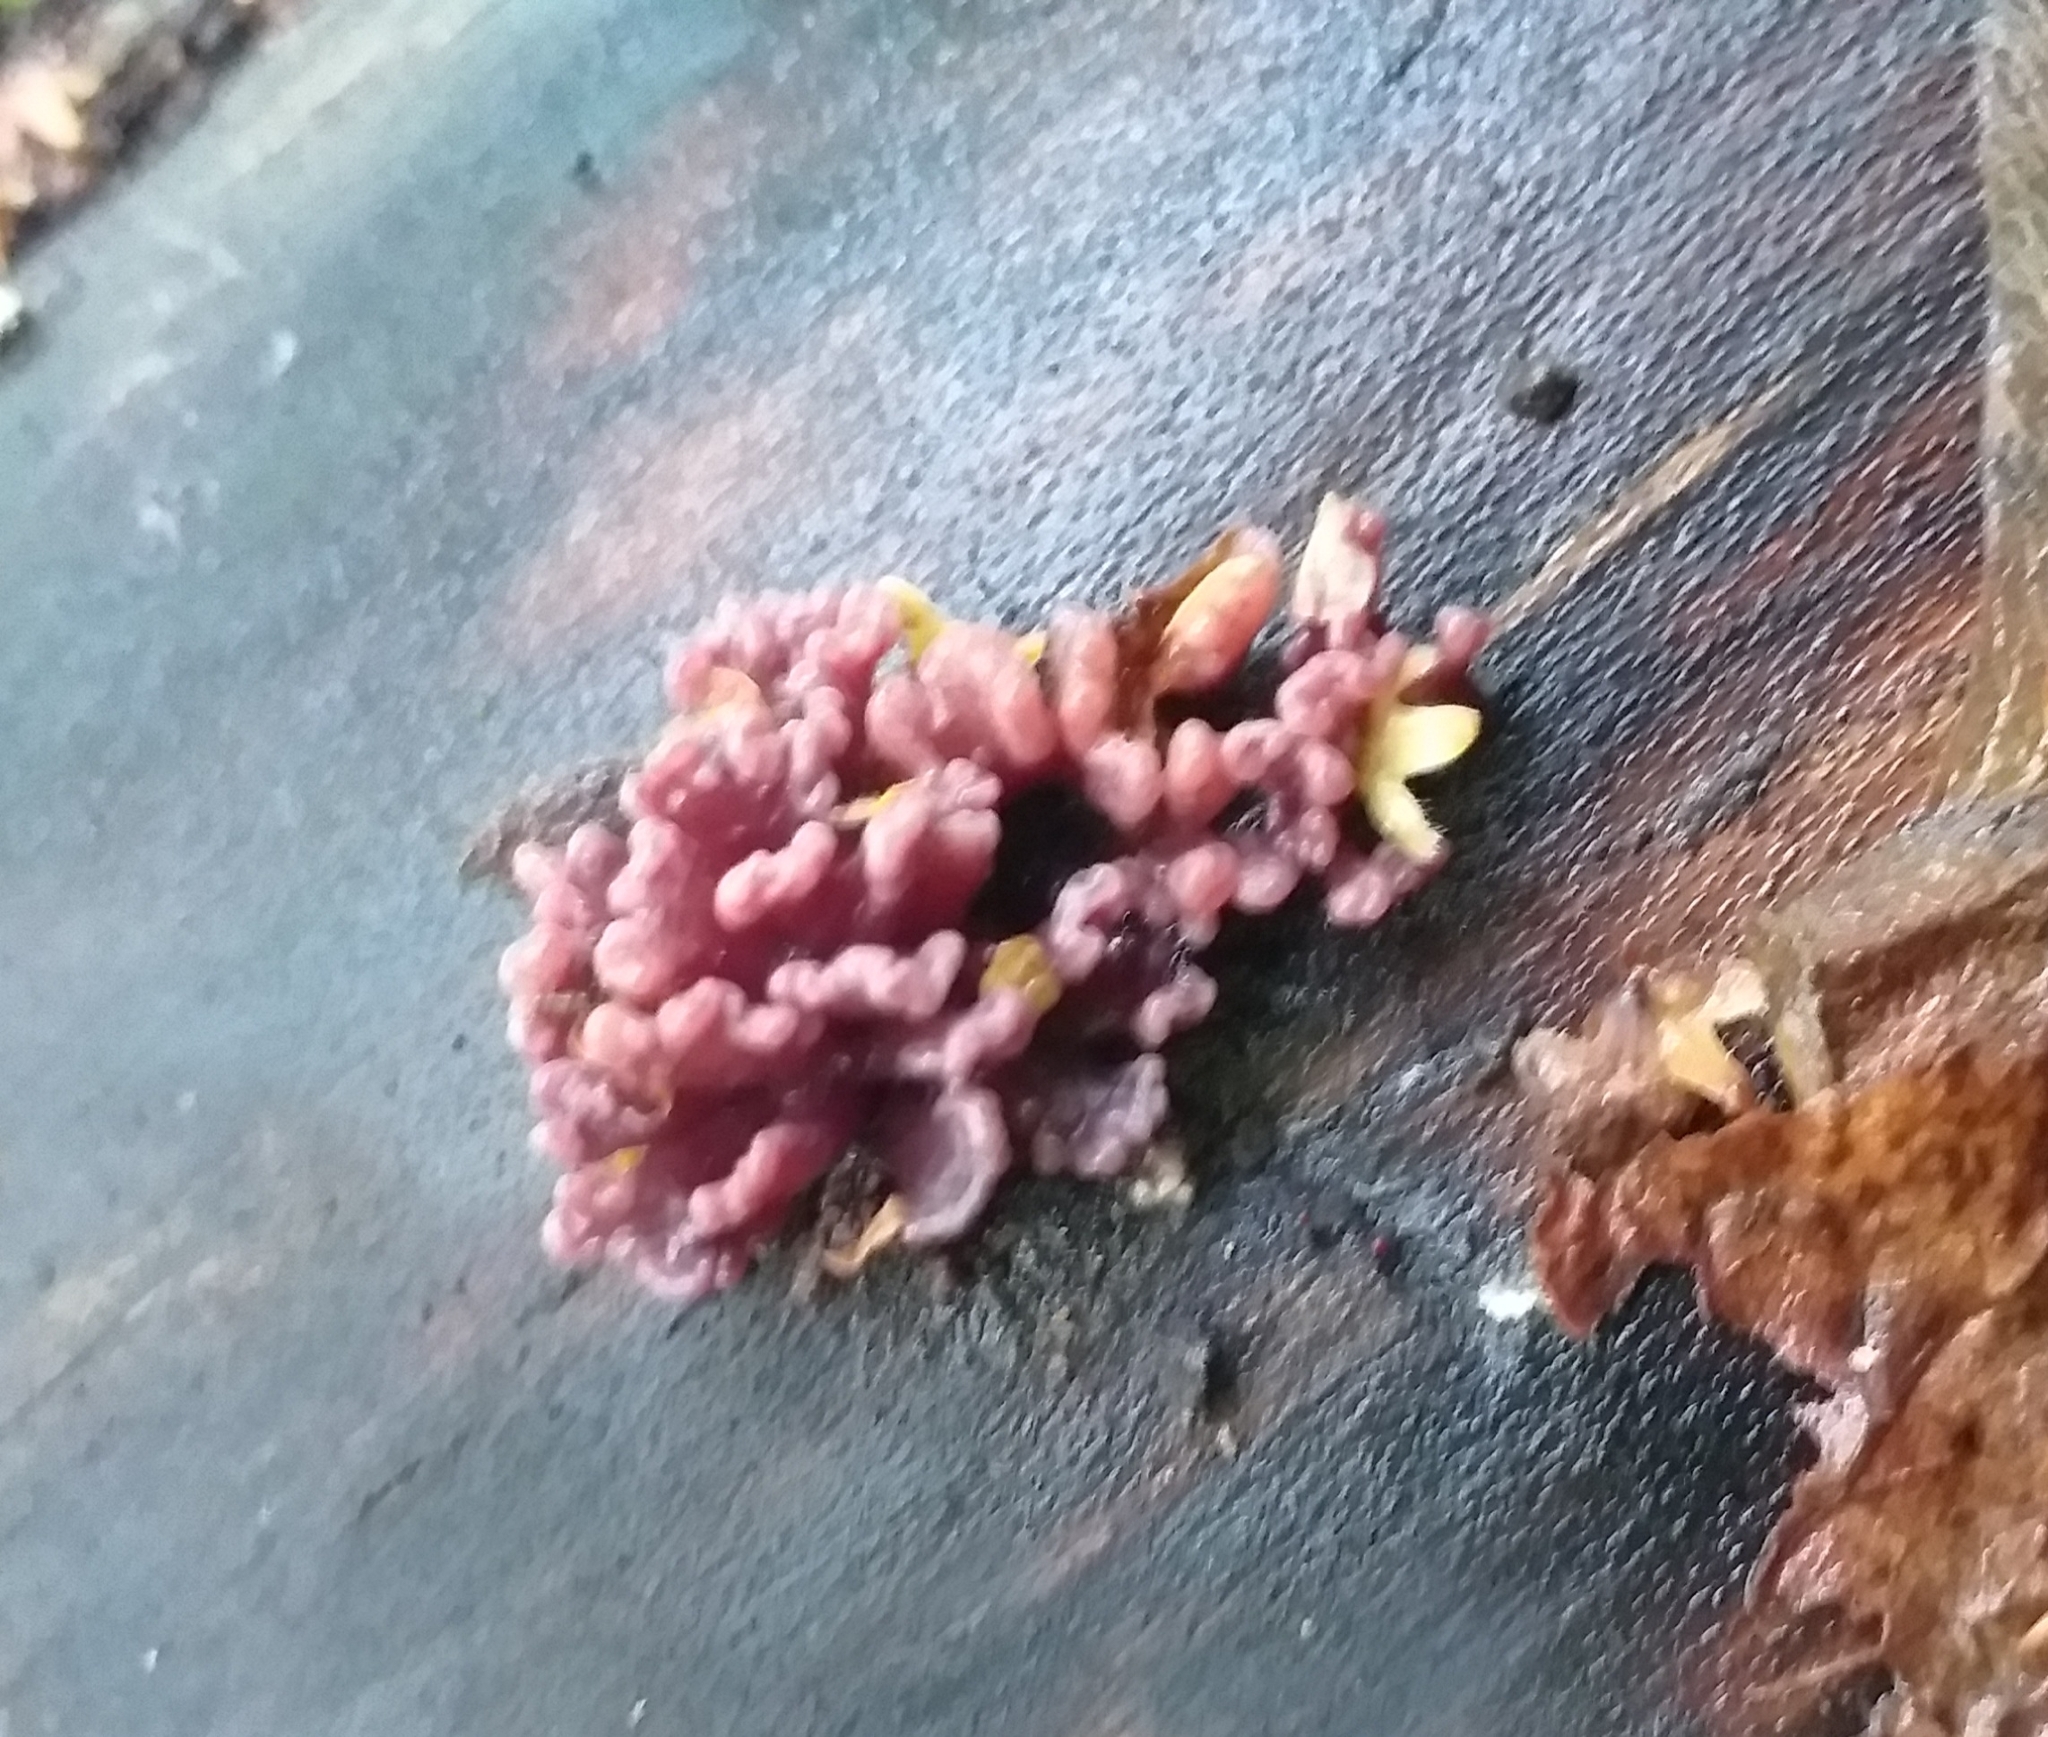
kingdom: Fungi
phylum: Ascomycota
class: Leotiomycetes
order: Helotiales
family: Gelatinodiscaceae
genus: Ascocoryne
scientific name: Ascocoryne sarcoides
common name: Purple jellydisc
